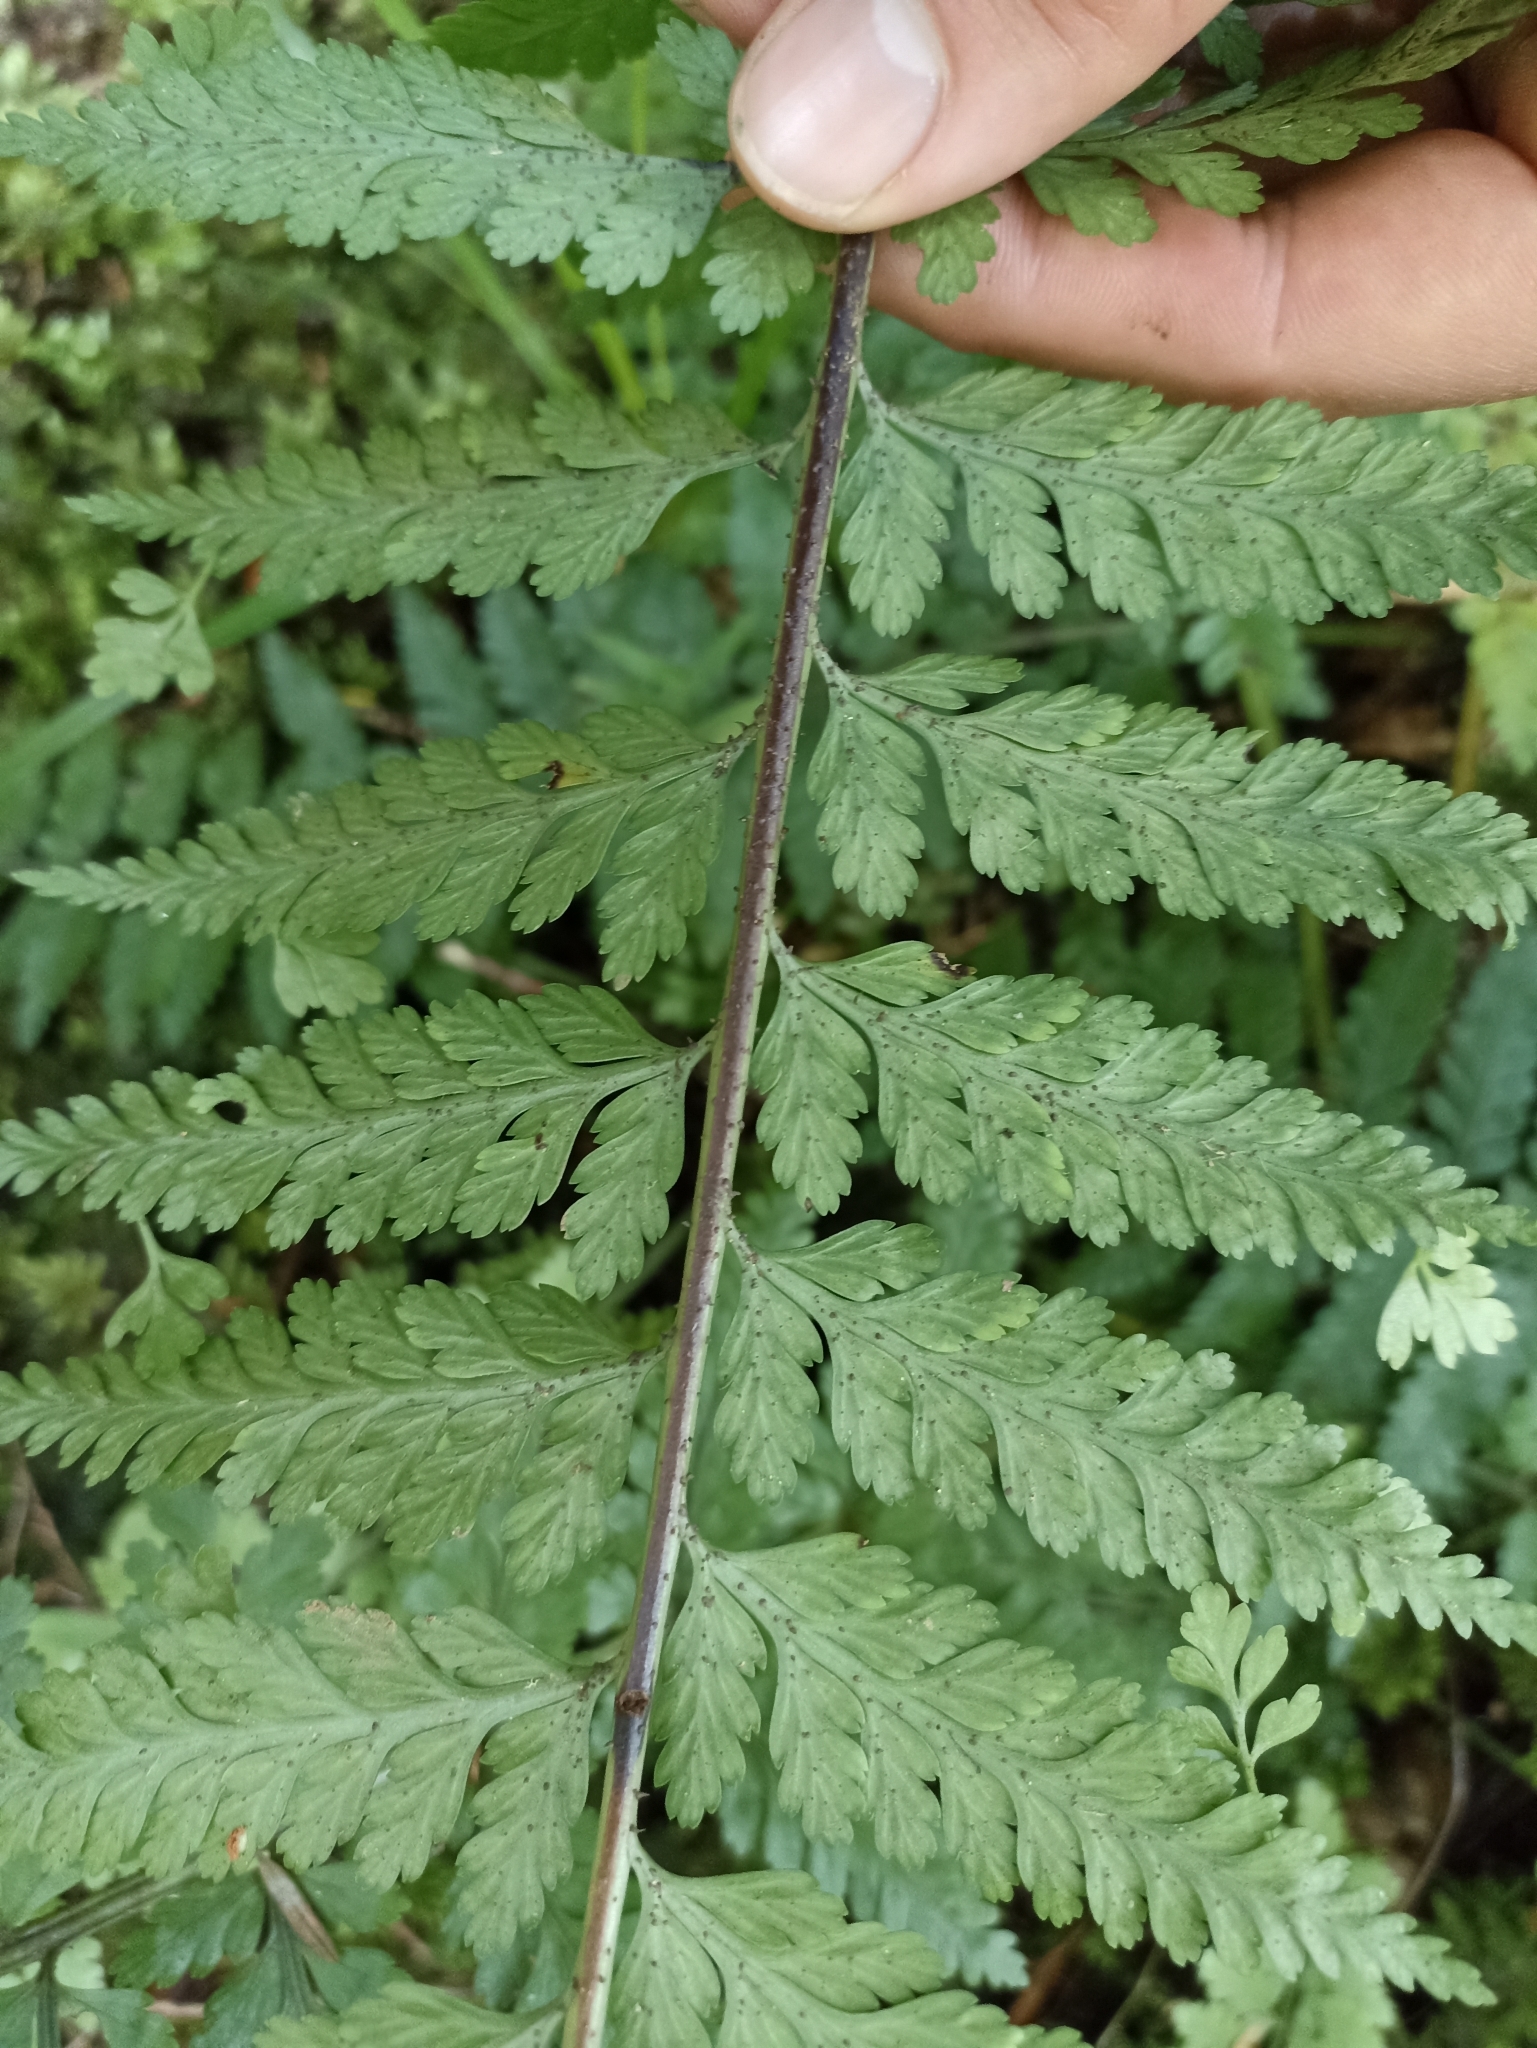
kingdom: Plantae
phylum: Tracheophyta
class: Polypodiopsida
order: Polypodiales
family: Aspleniaceae
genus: Asplenium
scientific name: Asplenium bulbiferum
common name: Mother fern
